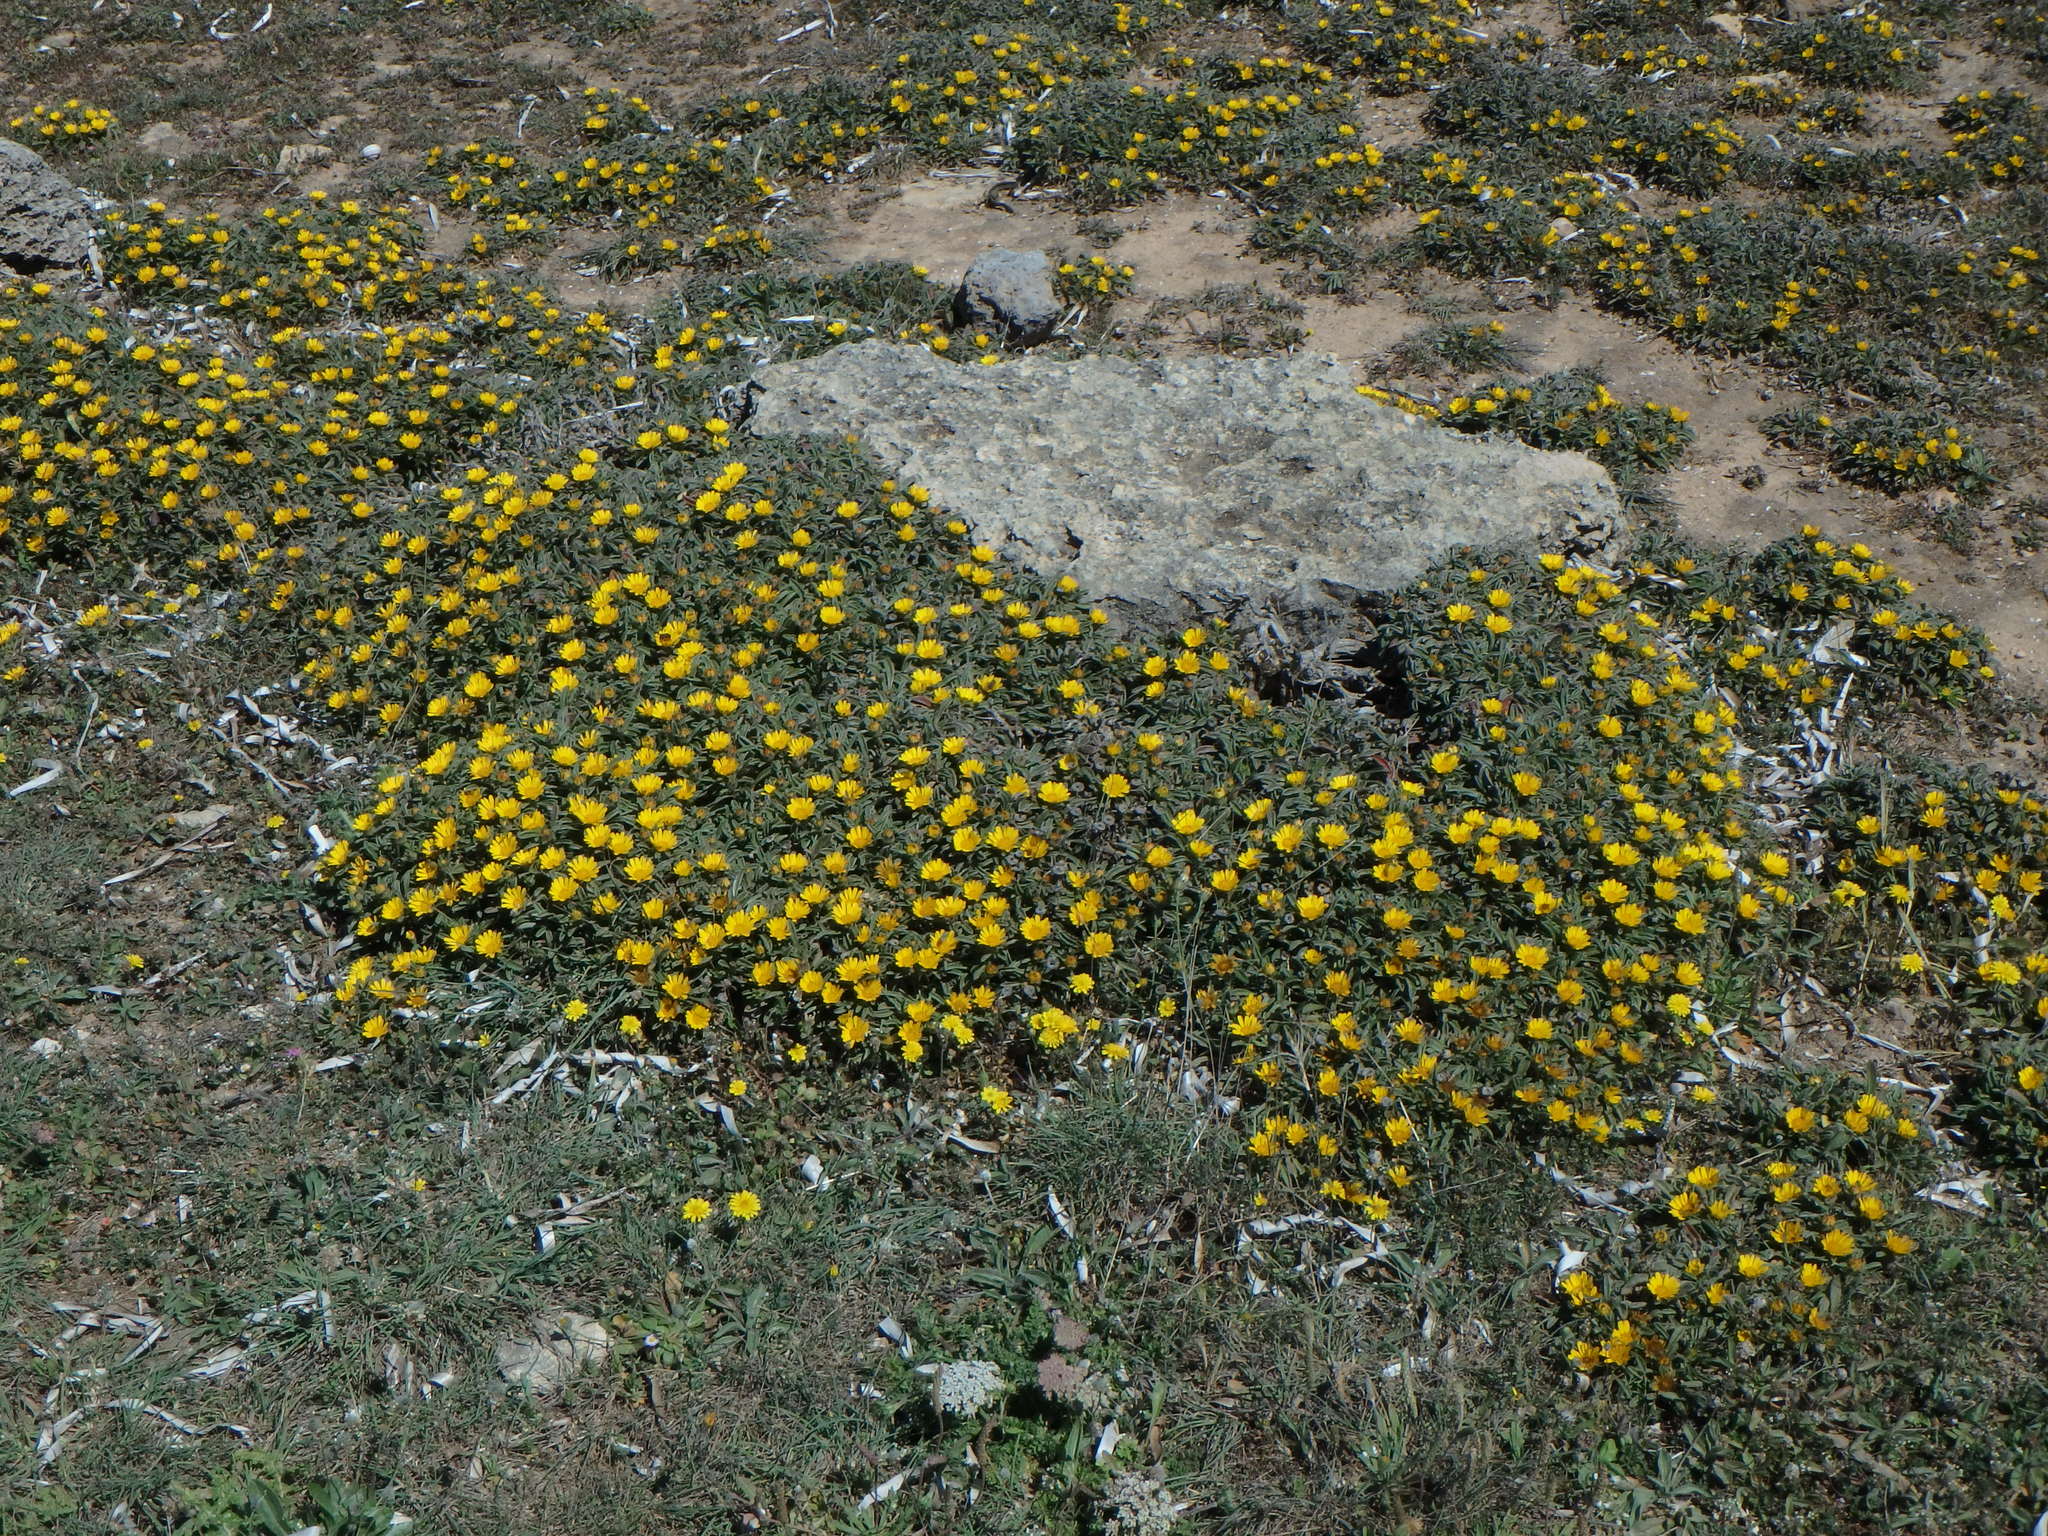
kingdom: Plantae
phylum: Tracheophyta
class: Magnoliopsida
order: Asterales
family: Asteraceae
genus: Pallenis
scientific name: Pallenis maritima
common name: Golden coin daisy
